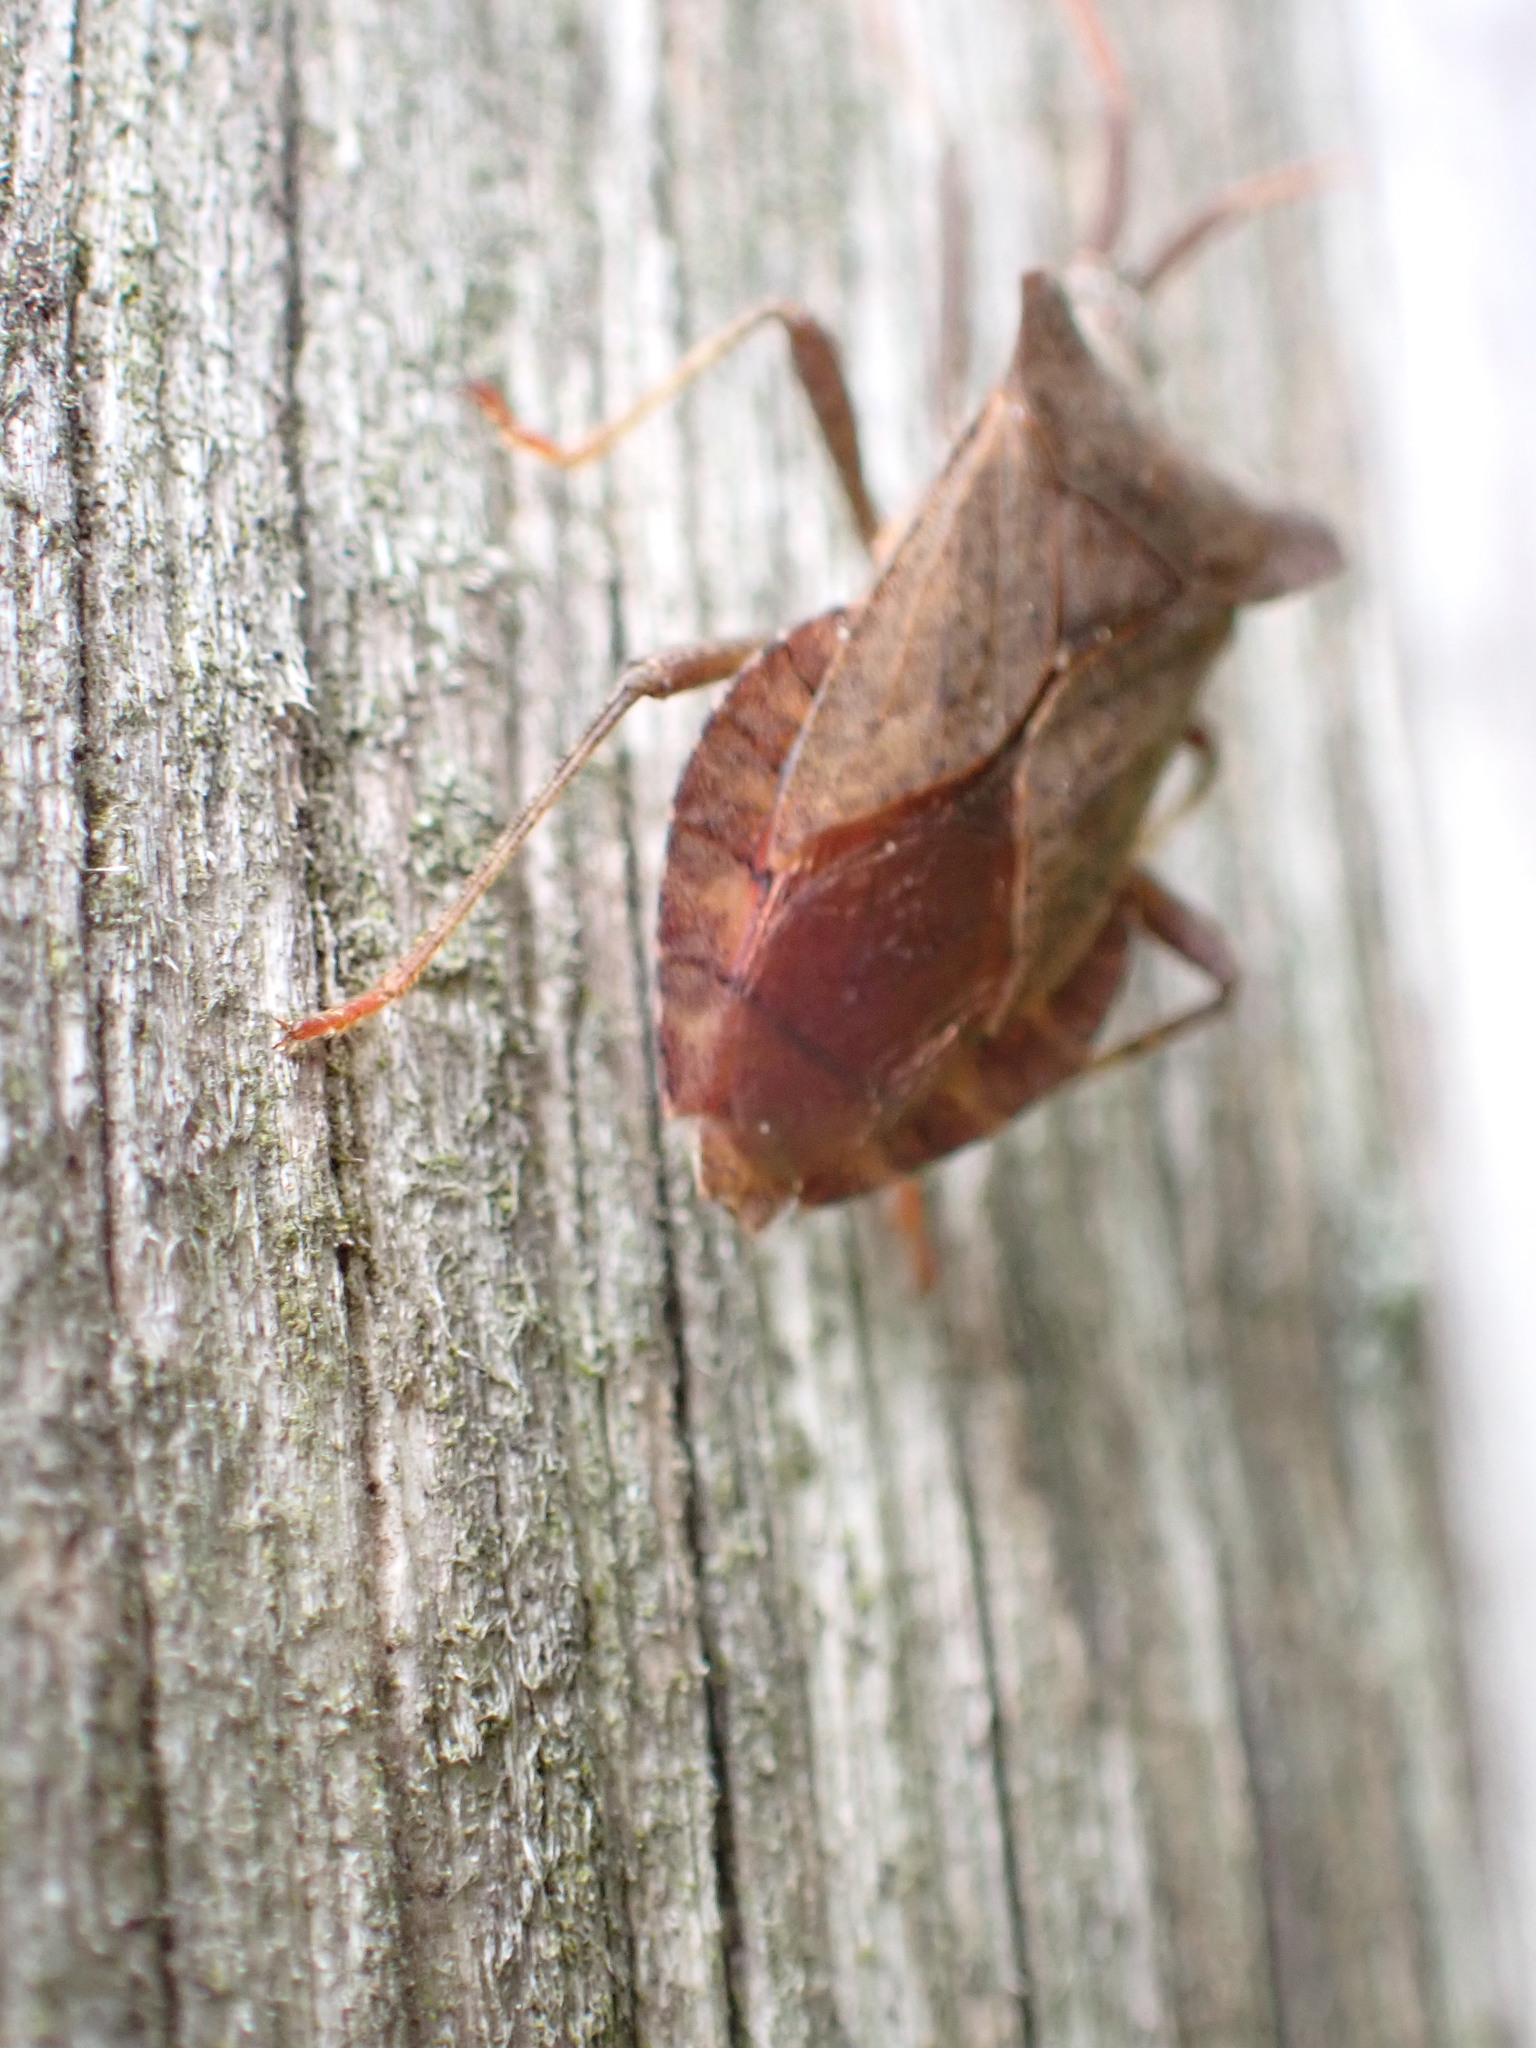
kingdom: Animalia
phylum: Arthropoda
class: Insecta
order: Hemiptera
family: Coreidae
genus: Coreus
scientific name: Coreus marginatus
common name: Dock bug
